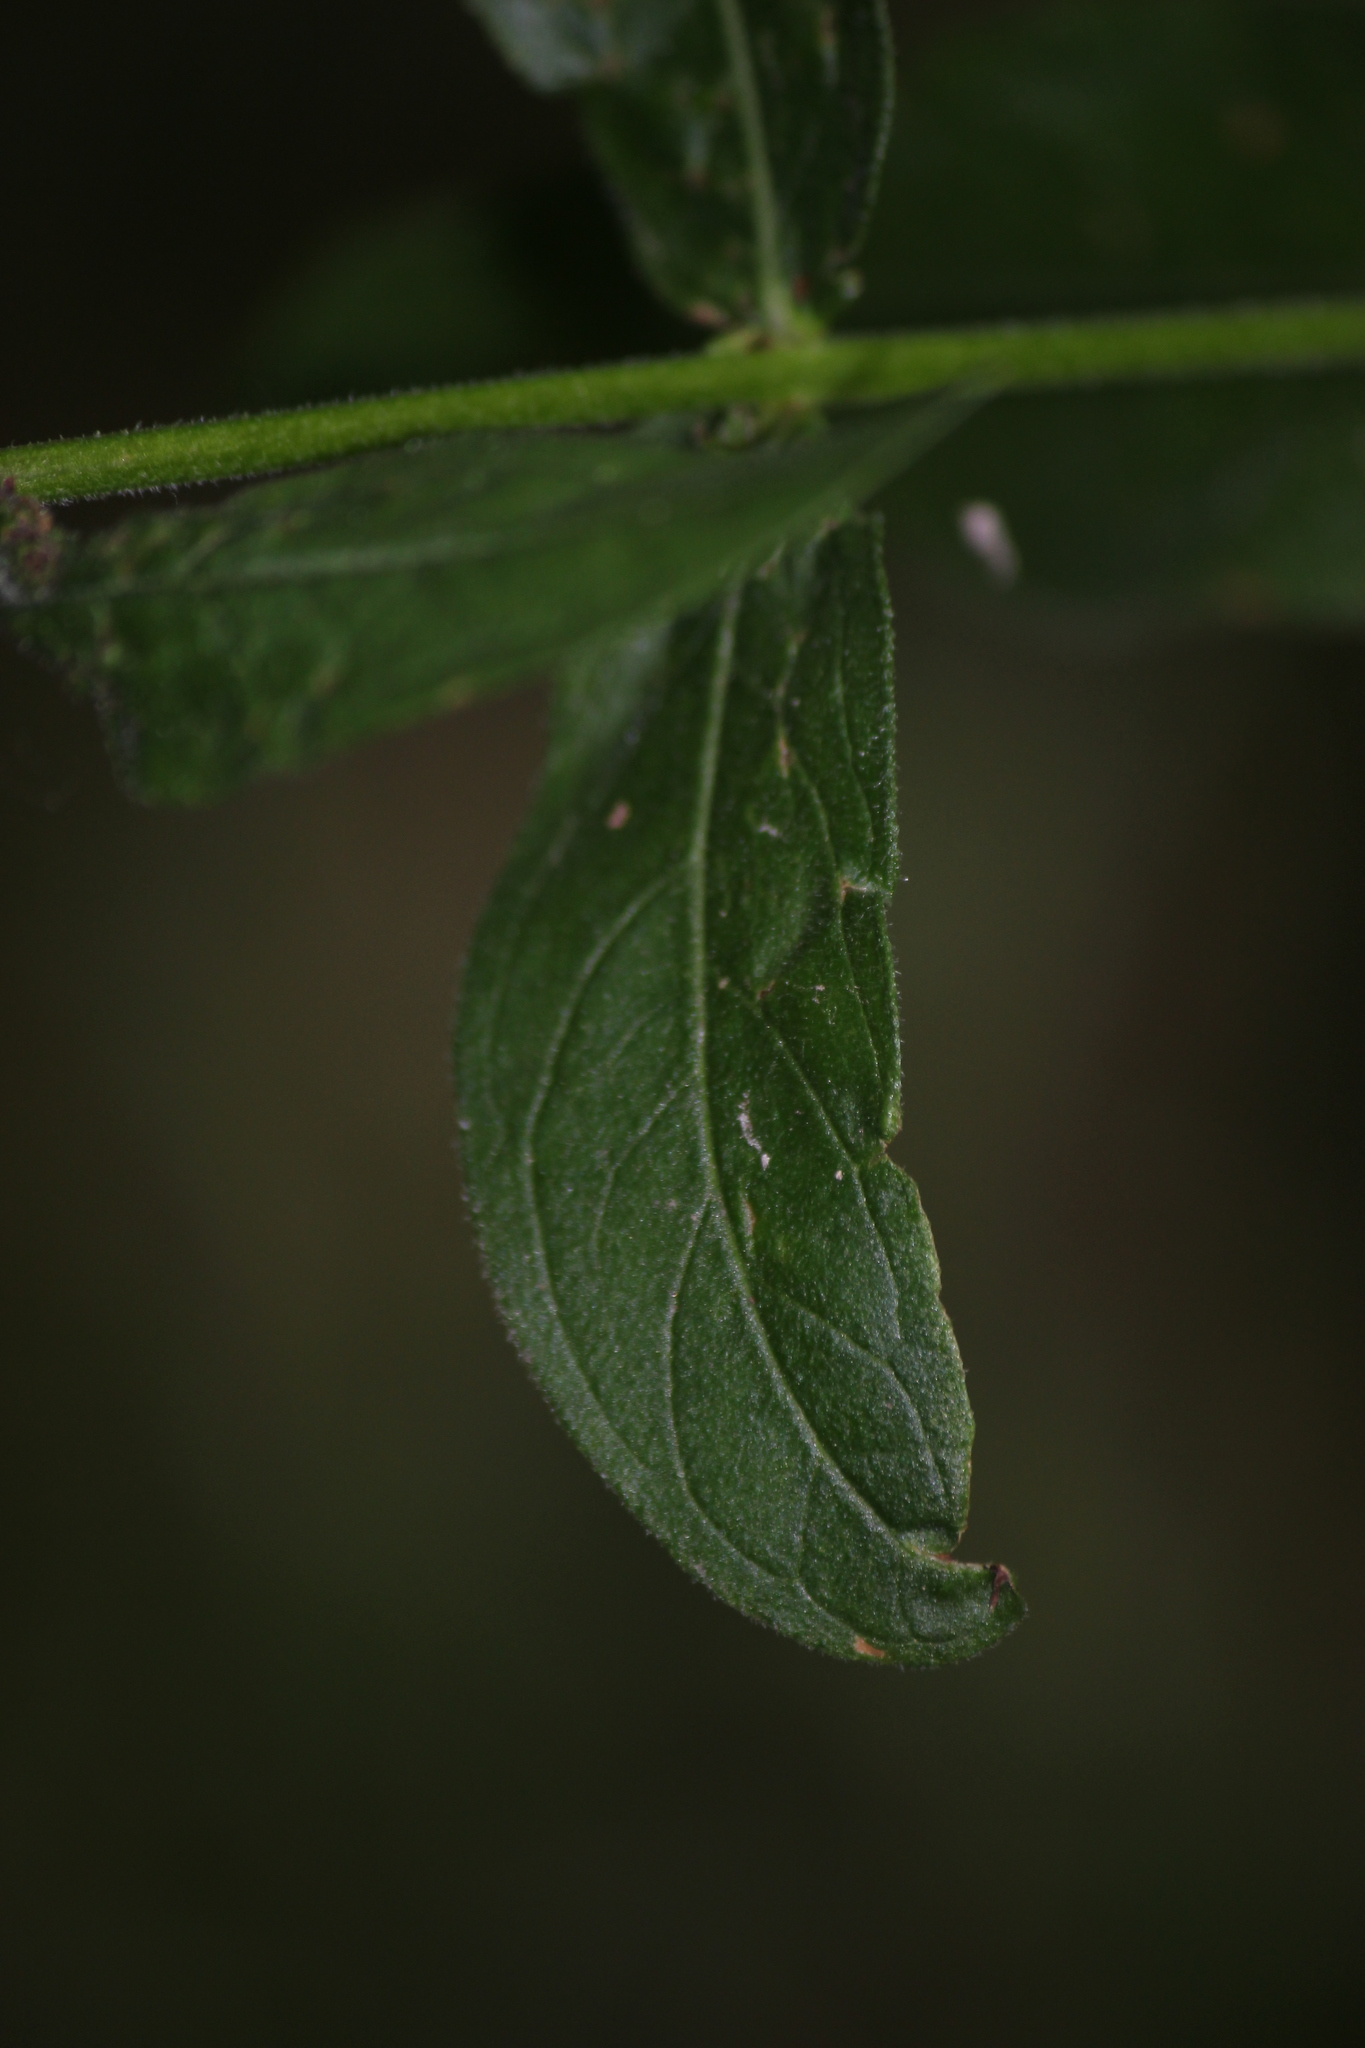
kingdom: Plantae
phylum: Tracheophyta
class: Magnoliopsida
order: Myrtales
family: Lythraceae
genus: Lythrum
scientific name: Lythrum salicaria
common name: Purple loosestrife
